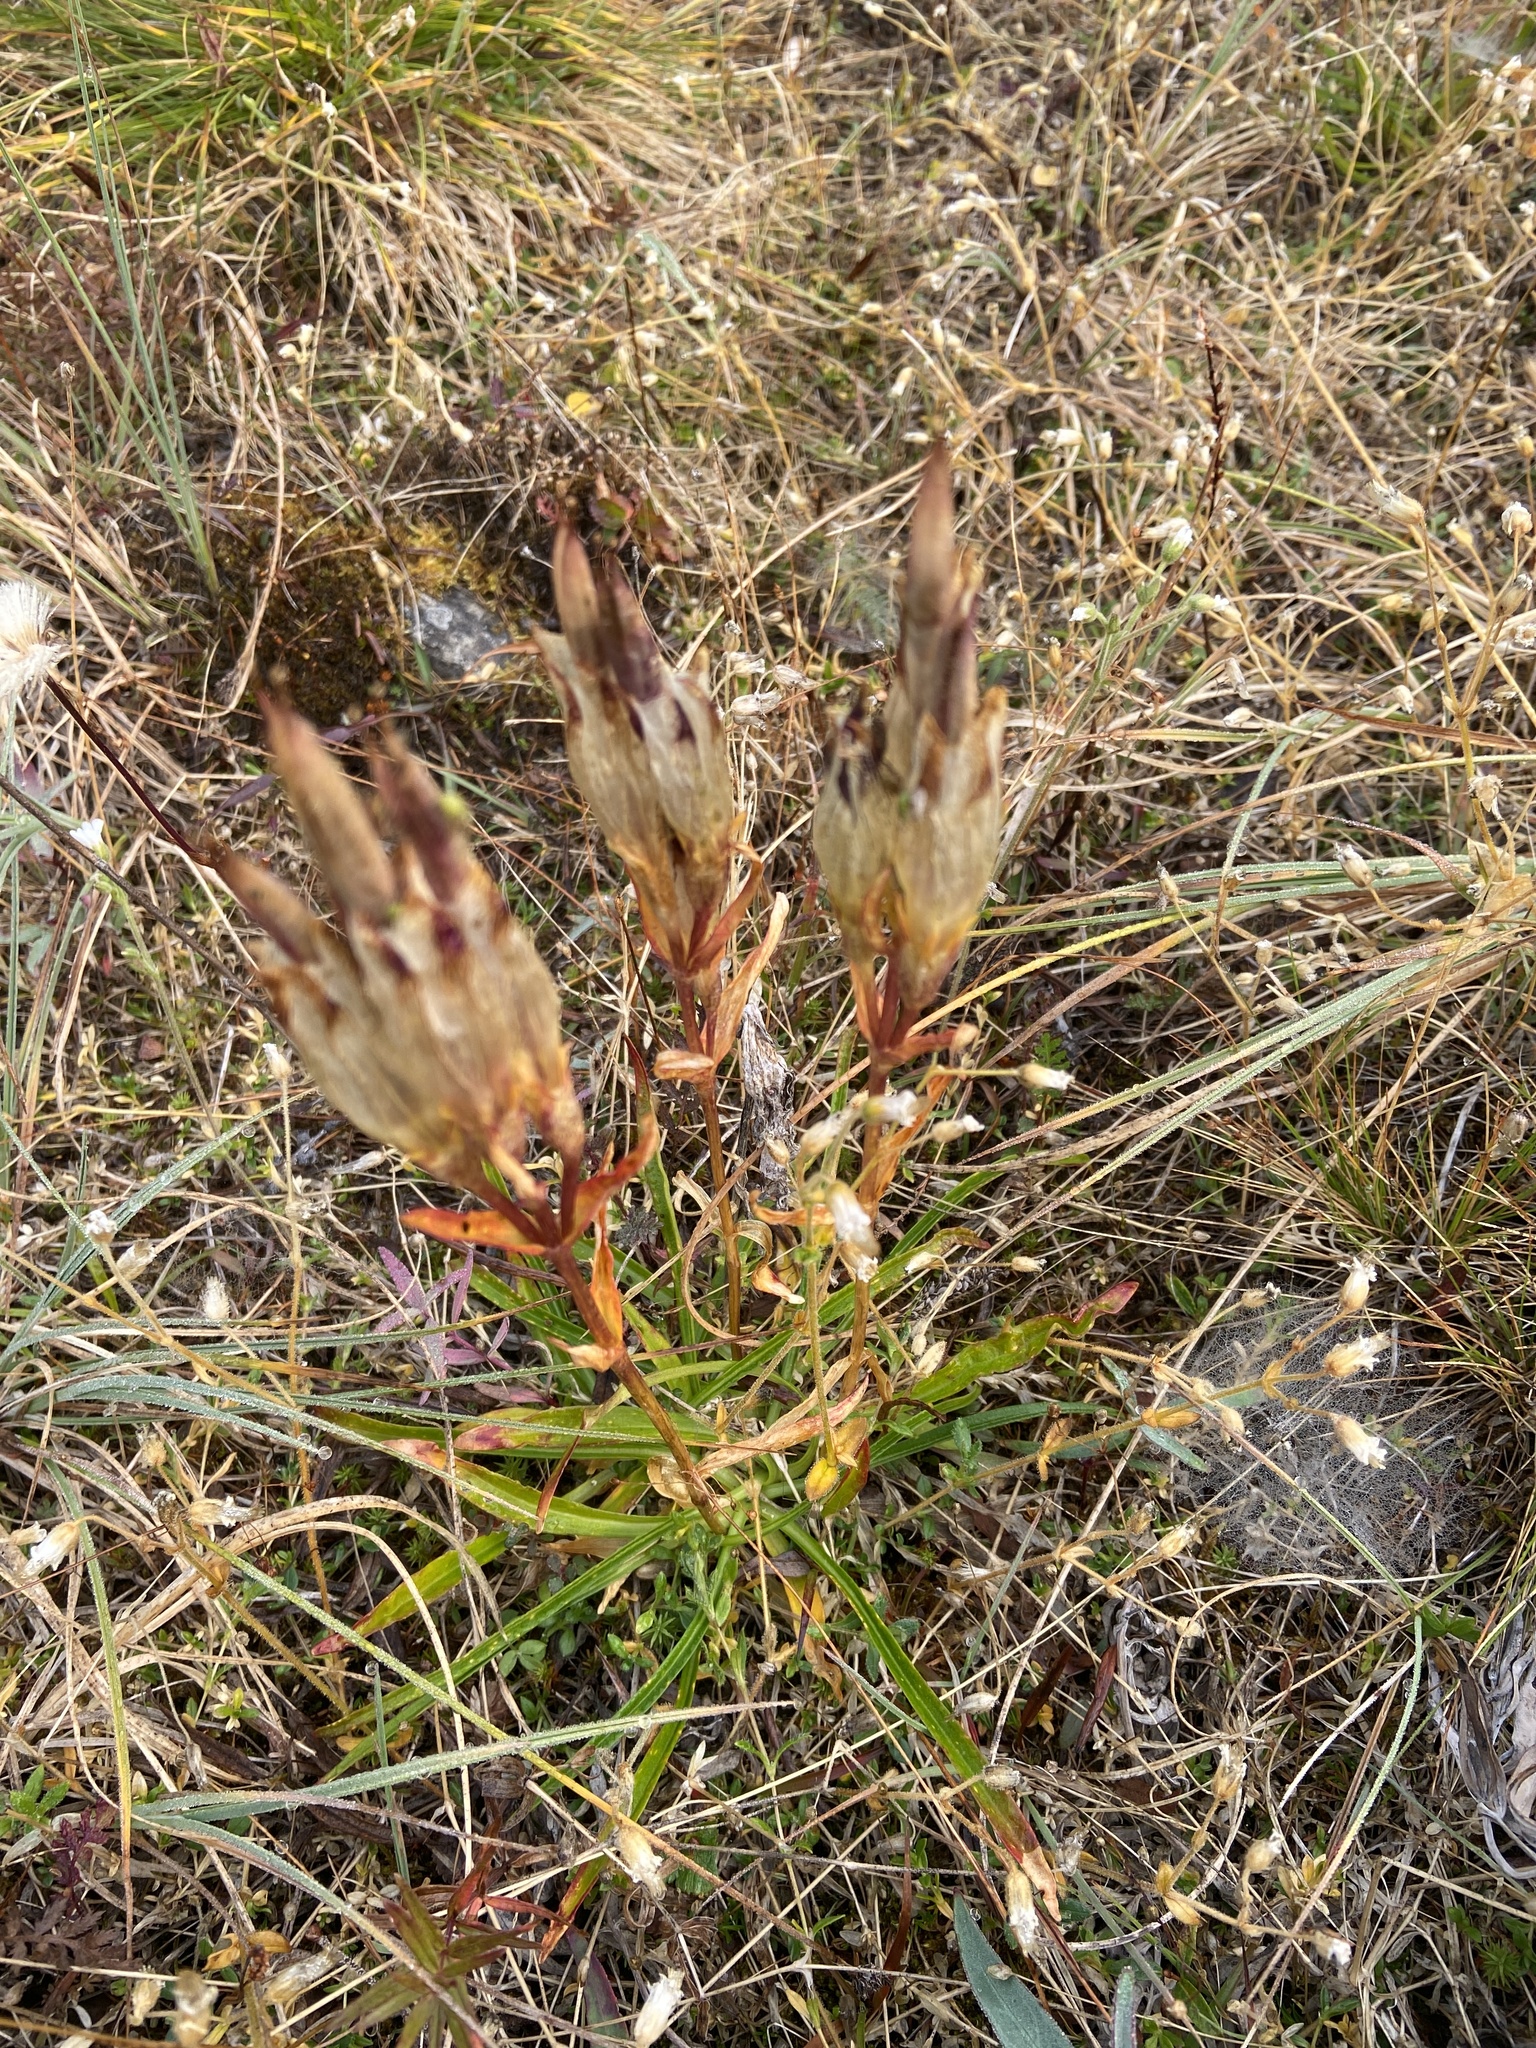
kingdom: Plantae
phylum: Tracheophyta
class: Magnoliopsida
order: Gentianales
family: Gentianaceae
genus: Gentiana
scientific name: Gentiana algida
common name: Arctic gentian
